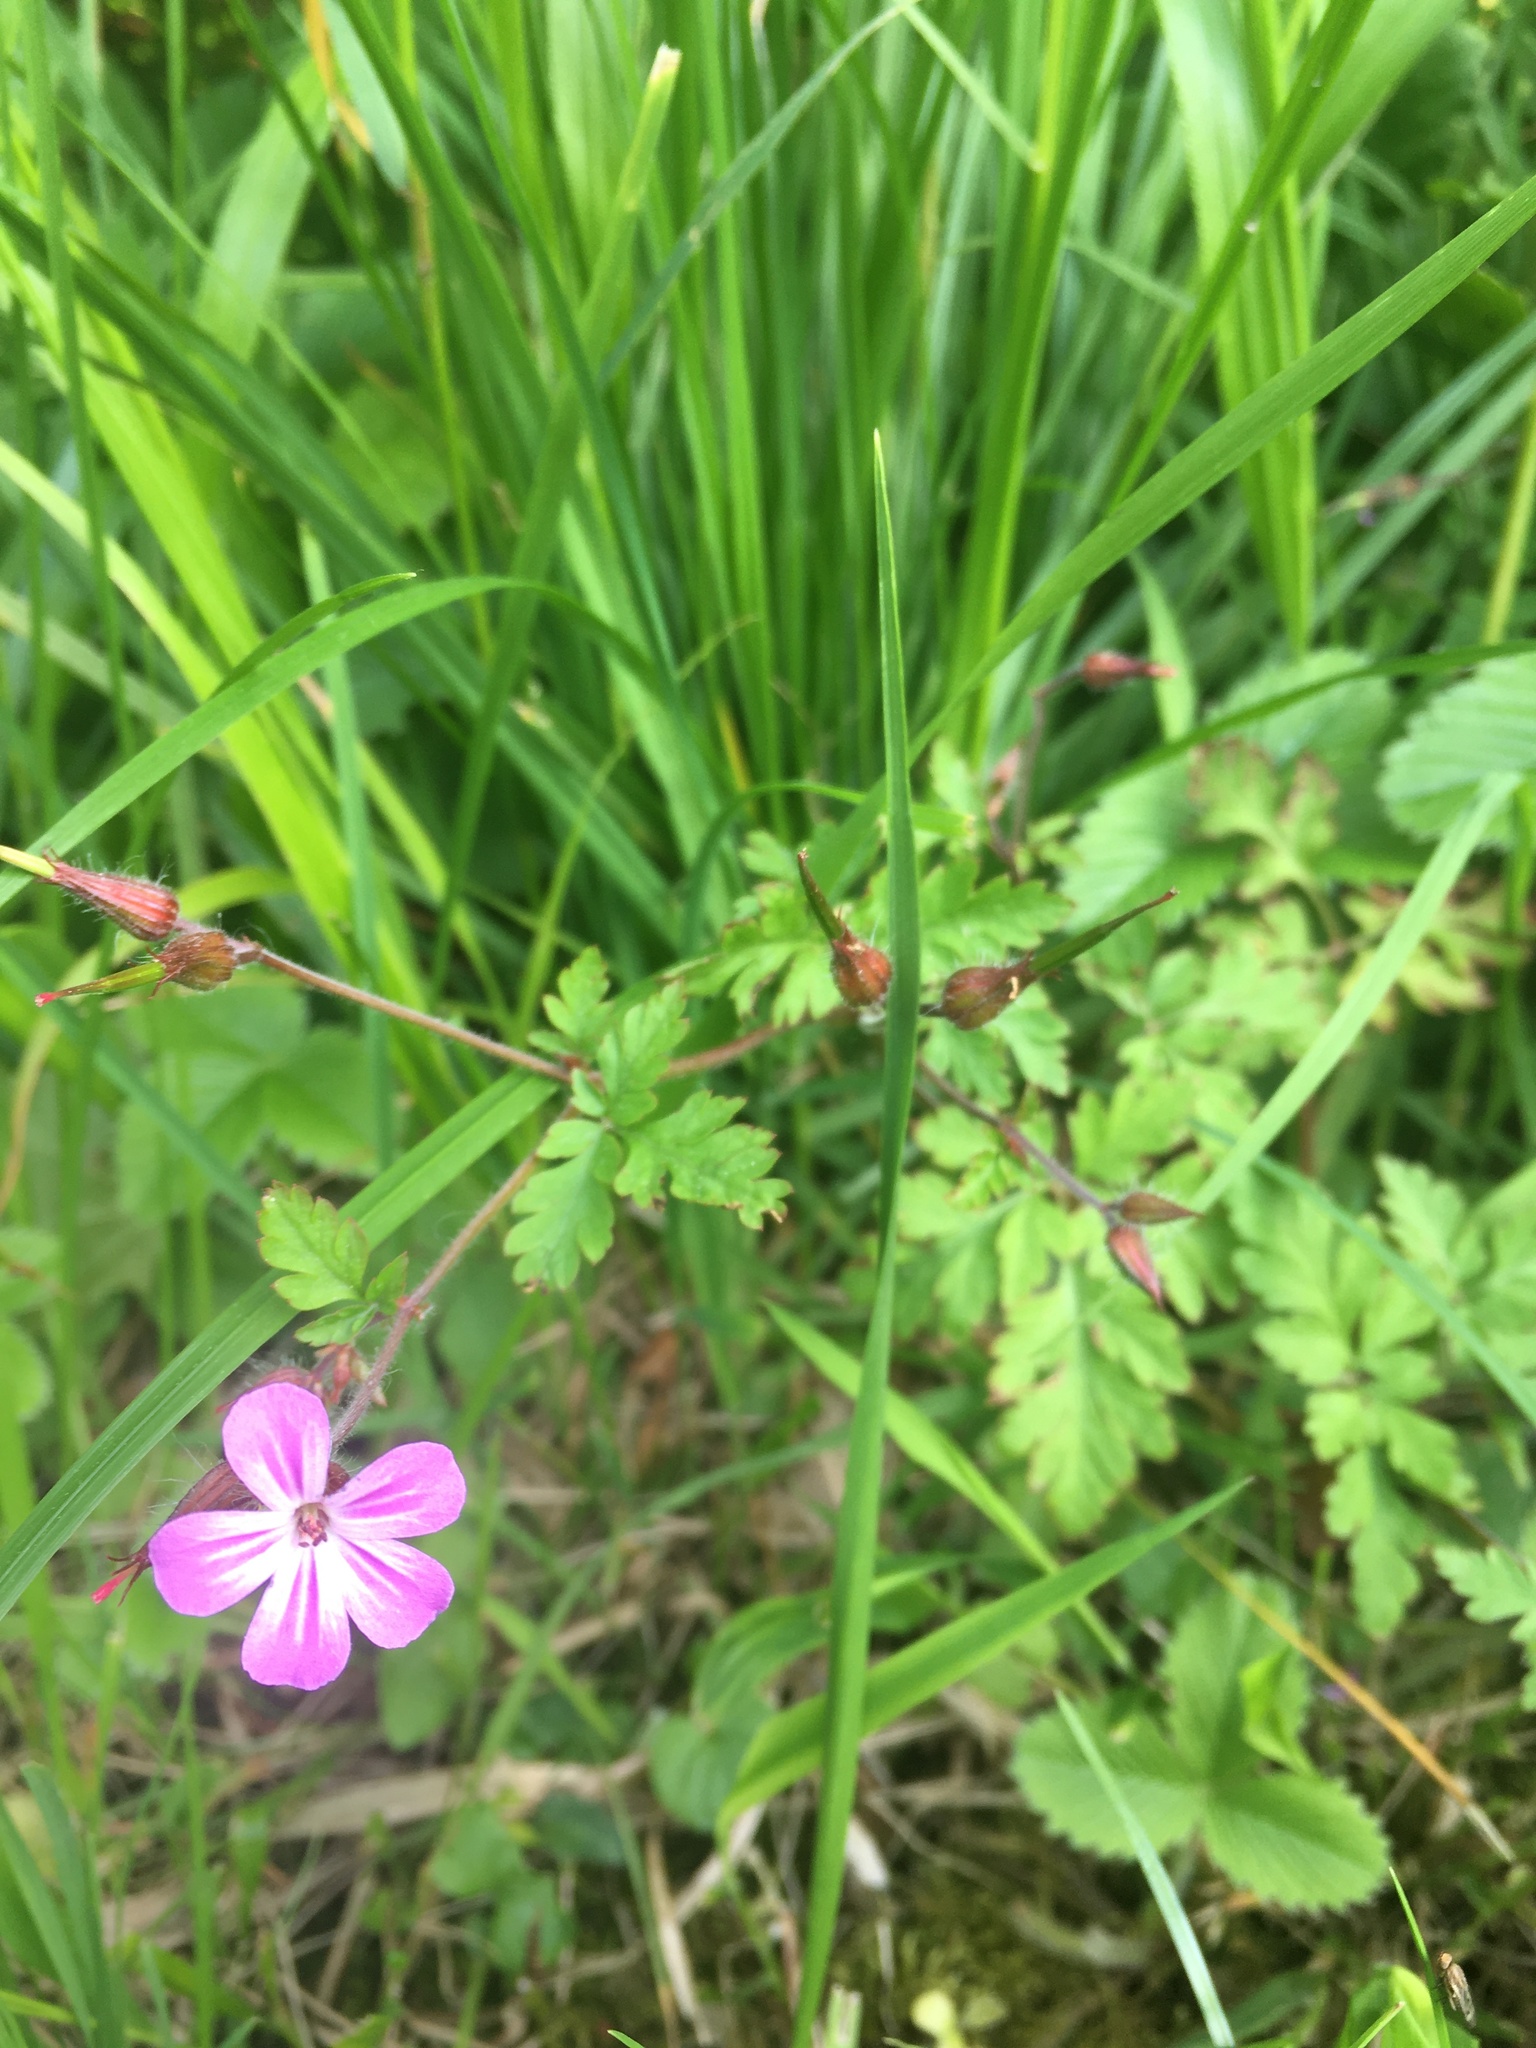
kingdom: Plantae
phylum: Tracheophyta
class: Magnoliopsida
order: Geraniales
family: Geraniaceae
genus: Geranium
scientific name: Geranium robertianum
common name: Herb-robert
